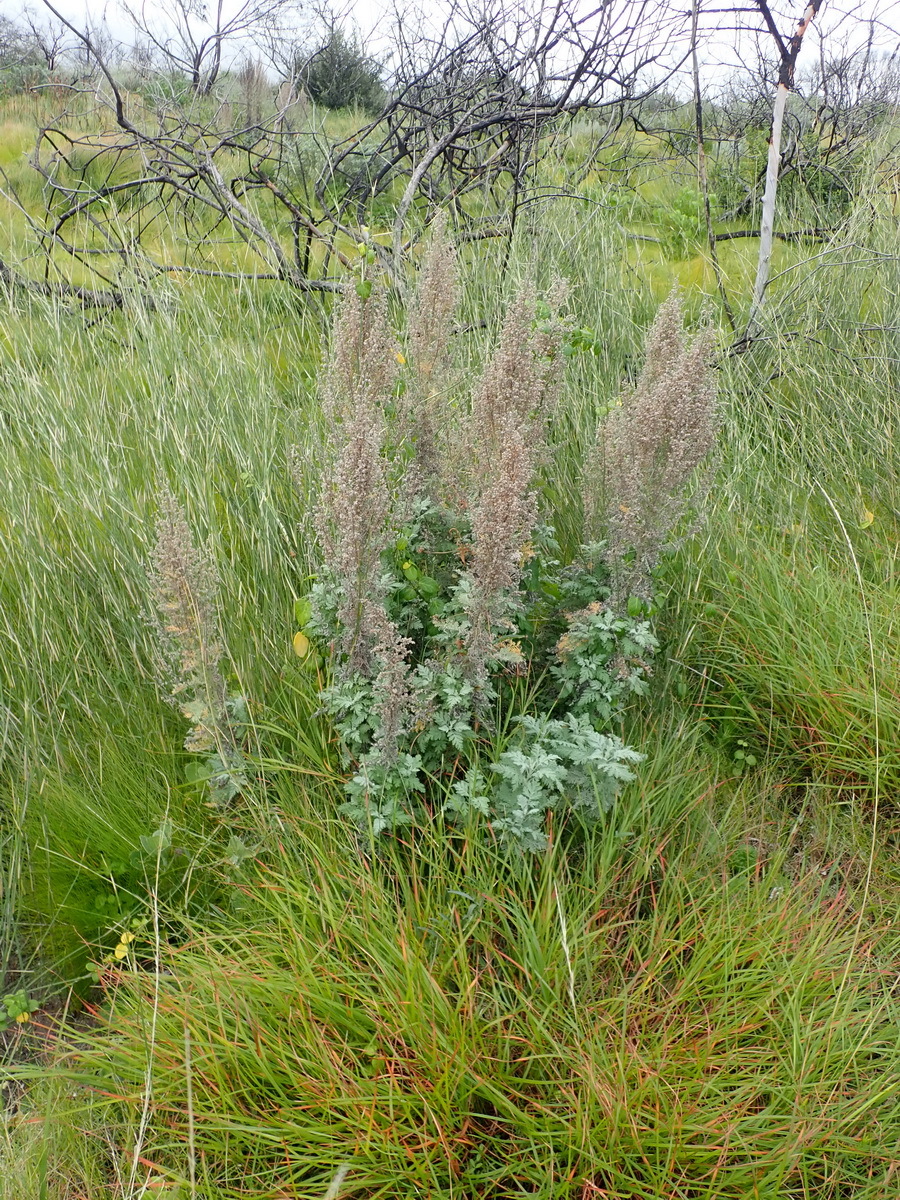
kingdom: Plantae
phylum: Tracheophyta
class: Magnoliopsida
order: Asterales
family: Asteraceae
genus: Artemisia
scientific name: Artemisia afra
